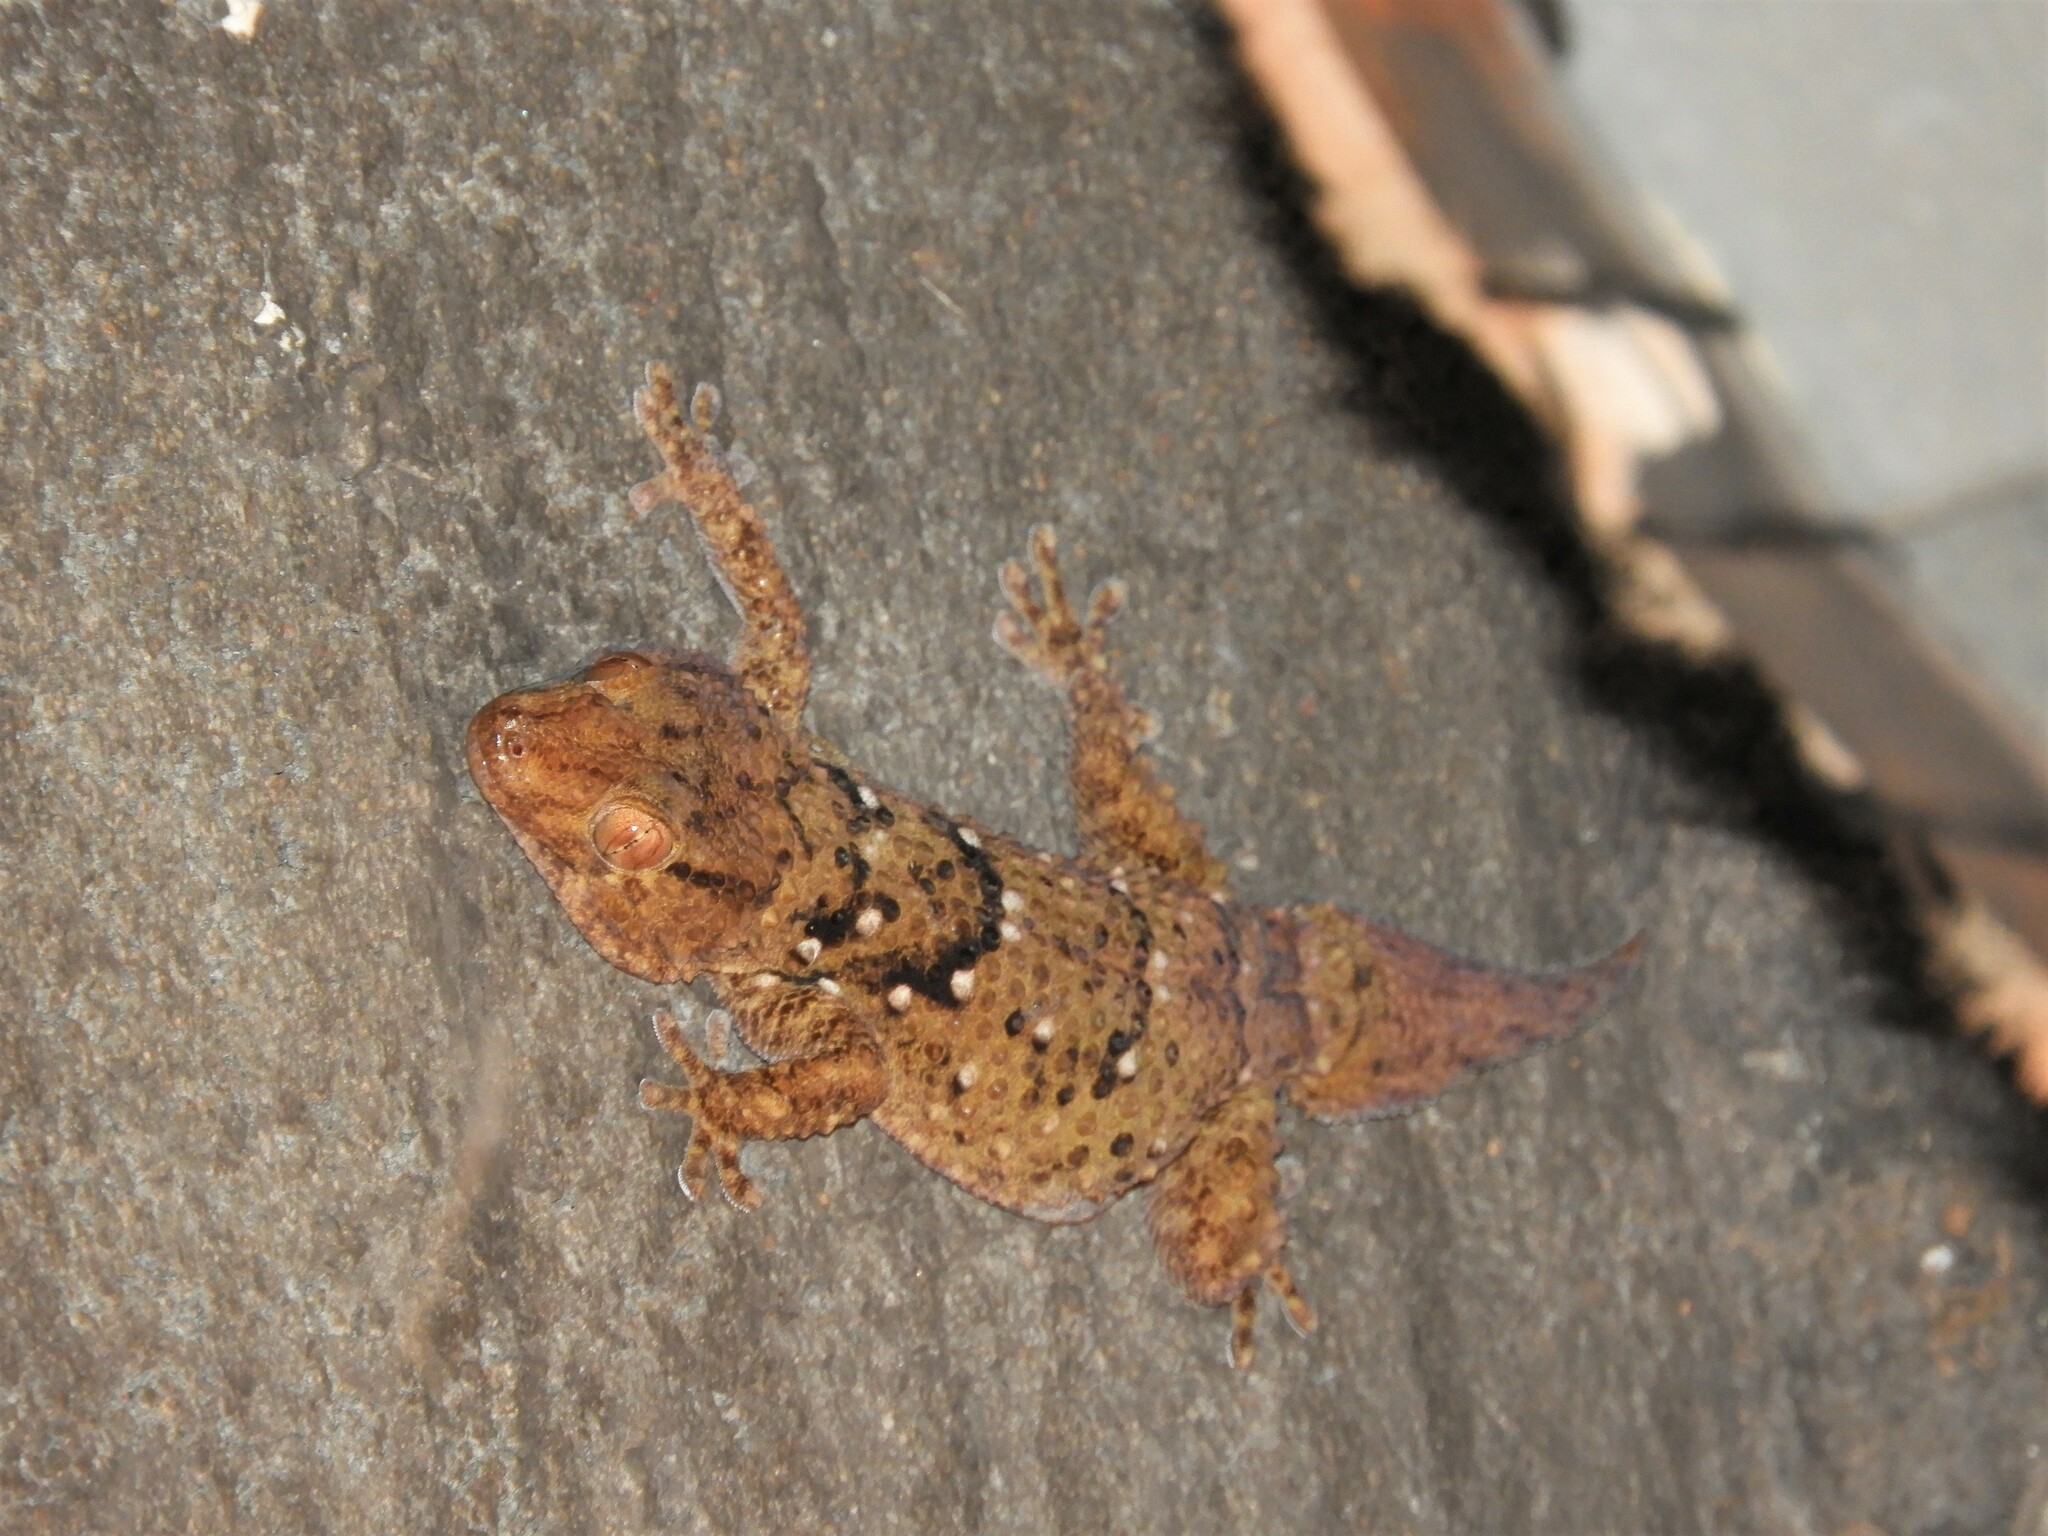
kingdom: Animalia
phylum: Chordata
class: Squamata
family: Gekkonidae
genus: Chondrodactylus
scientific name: Chondrodactylus laevigatus
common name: Fischer's thick-toed gecko
